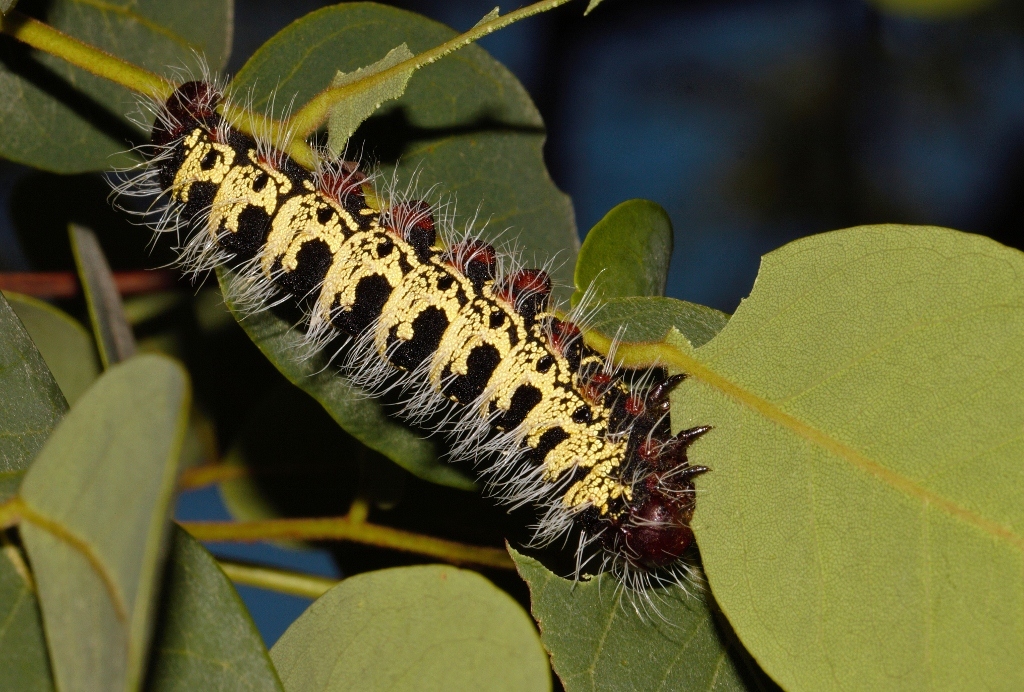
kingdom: Animalia
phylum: Arthropoda
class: Insecta
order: Lepidoptera
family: Saturniidae
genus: Cirina
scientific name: Cirina forda
